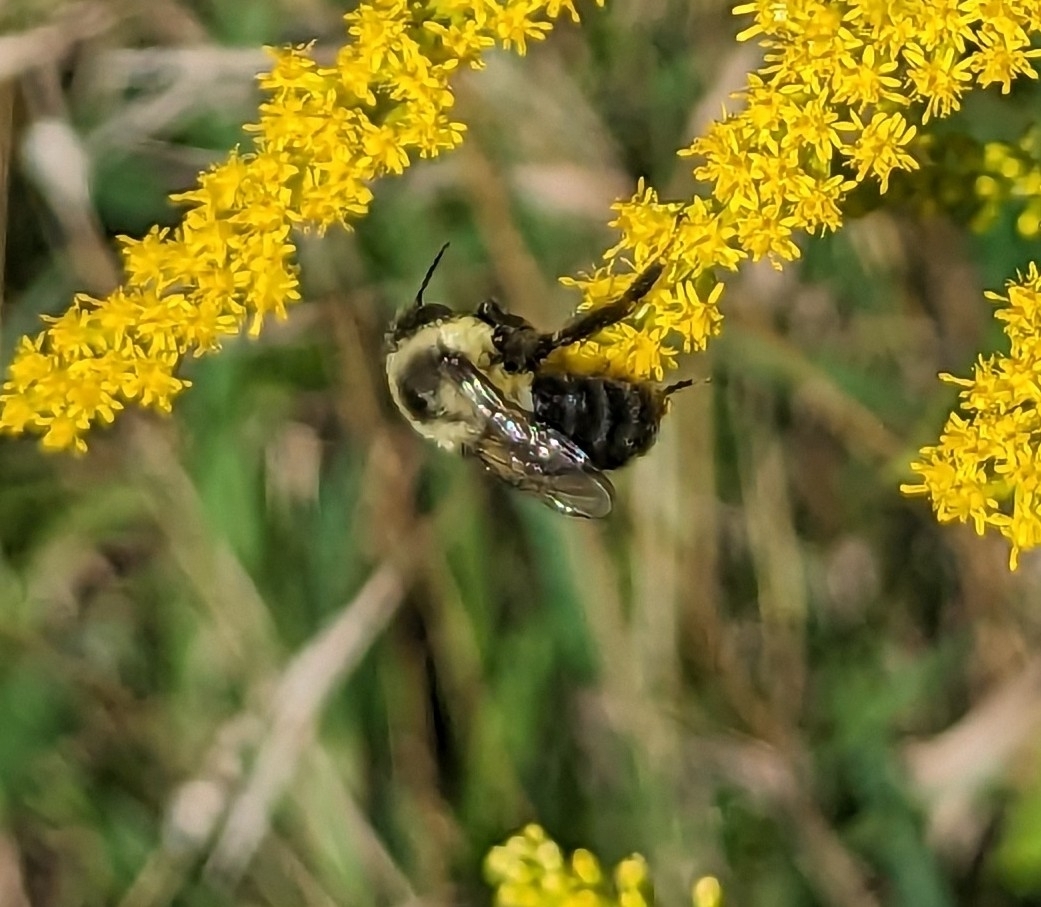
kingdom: Animalia
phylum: Arthropoda
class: Insecta
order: Hymenoptera
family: Apidae
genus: Bombus
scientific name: Bombus impatiens
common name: Common eastern bumble bee
